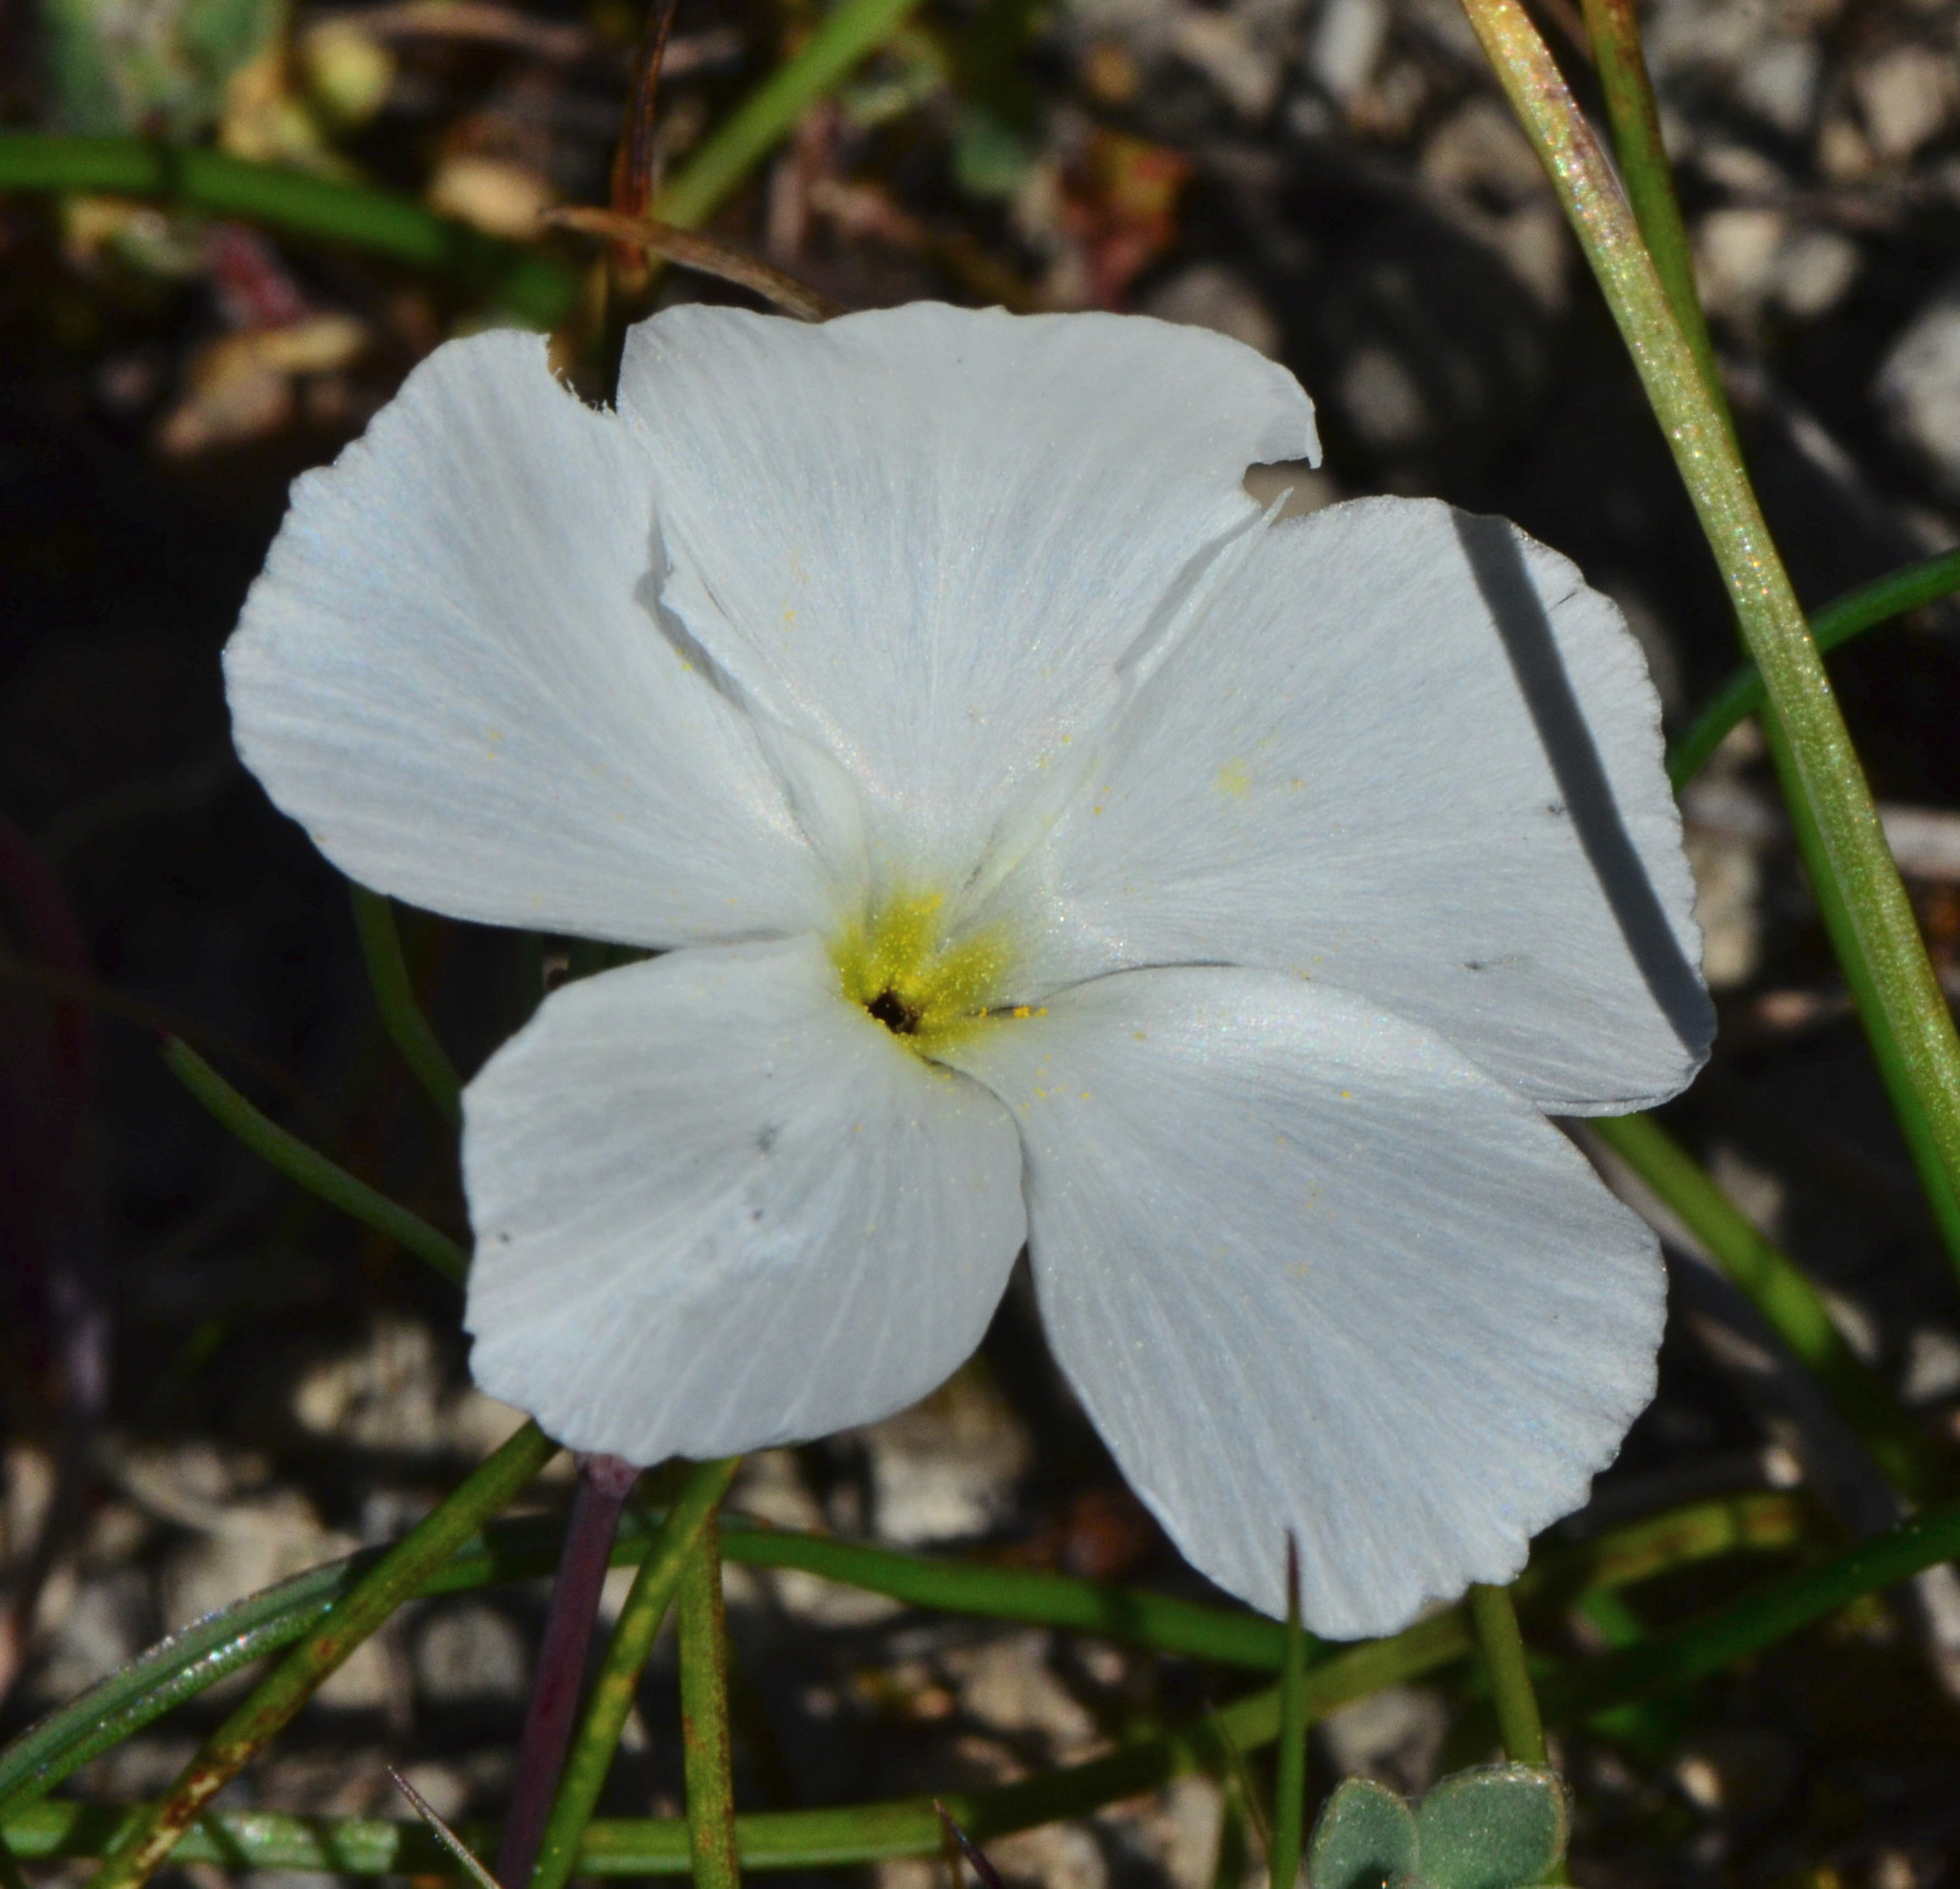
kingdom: Plantae
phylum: Tracheophyta
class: Magnoliopsida
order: Ericales
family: Polemoniaceae
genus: Linanthus
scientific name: Linanthus dichotomus
